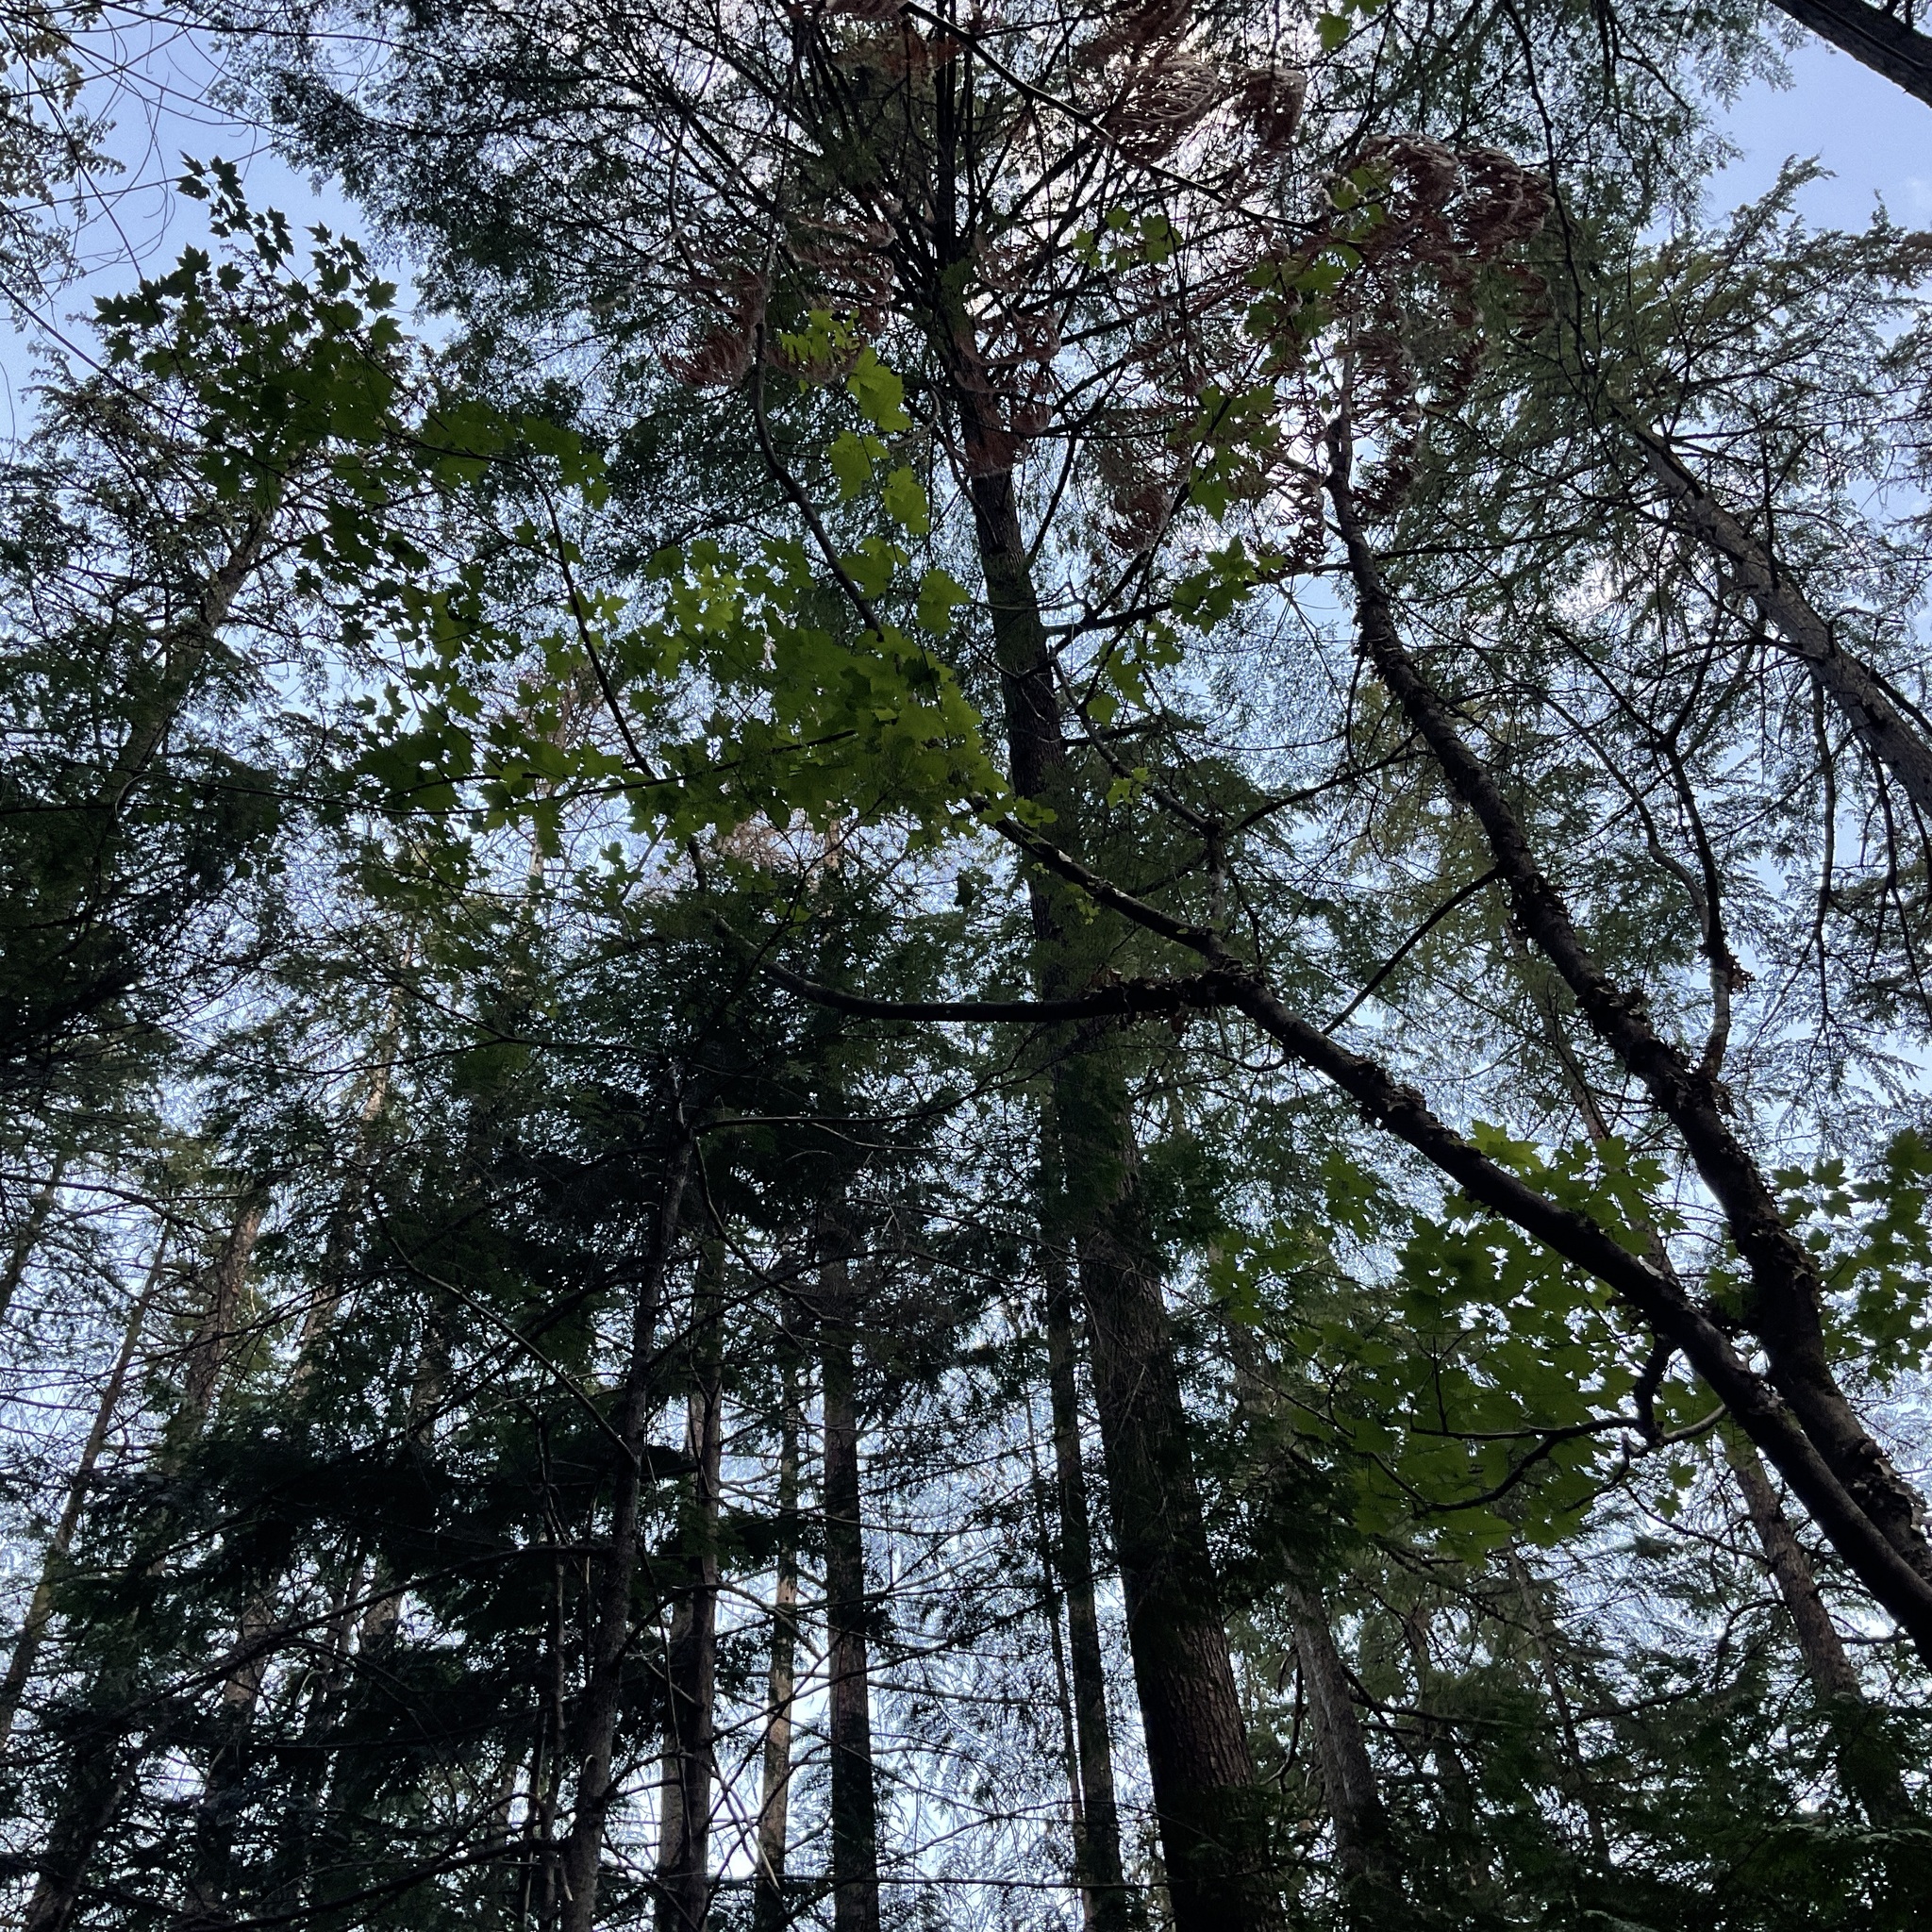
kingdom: Plantae
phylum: Tracheophyta
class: Magnoliopsida
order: Sapindales
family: Sapindaceae
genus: Acer
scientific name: Acer glabrum
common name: Rocky mountain maple
